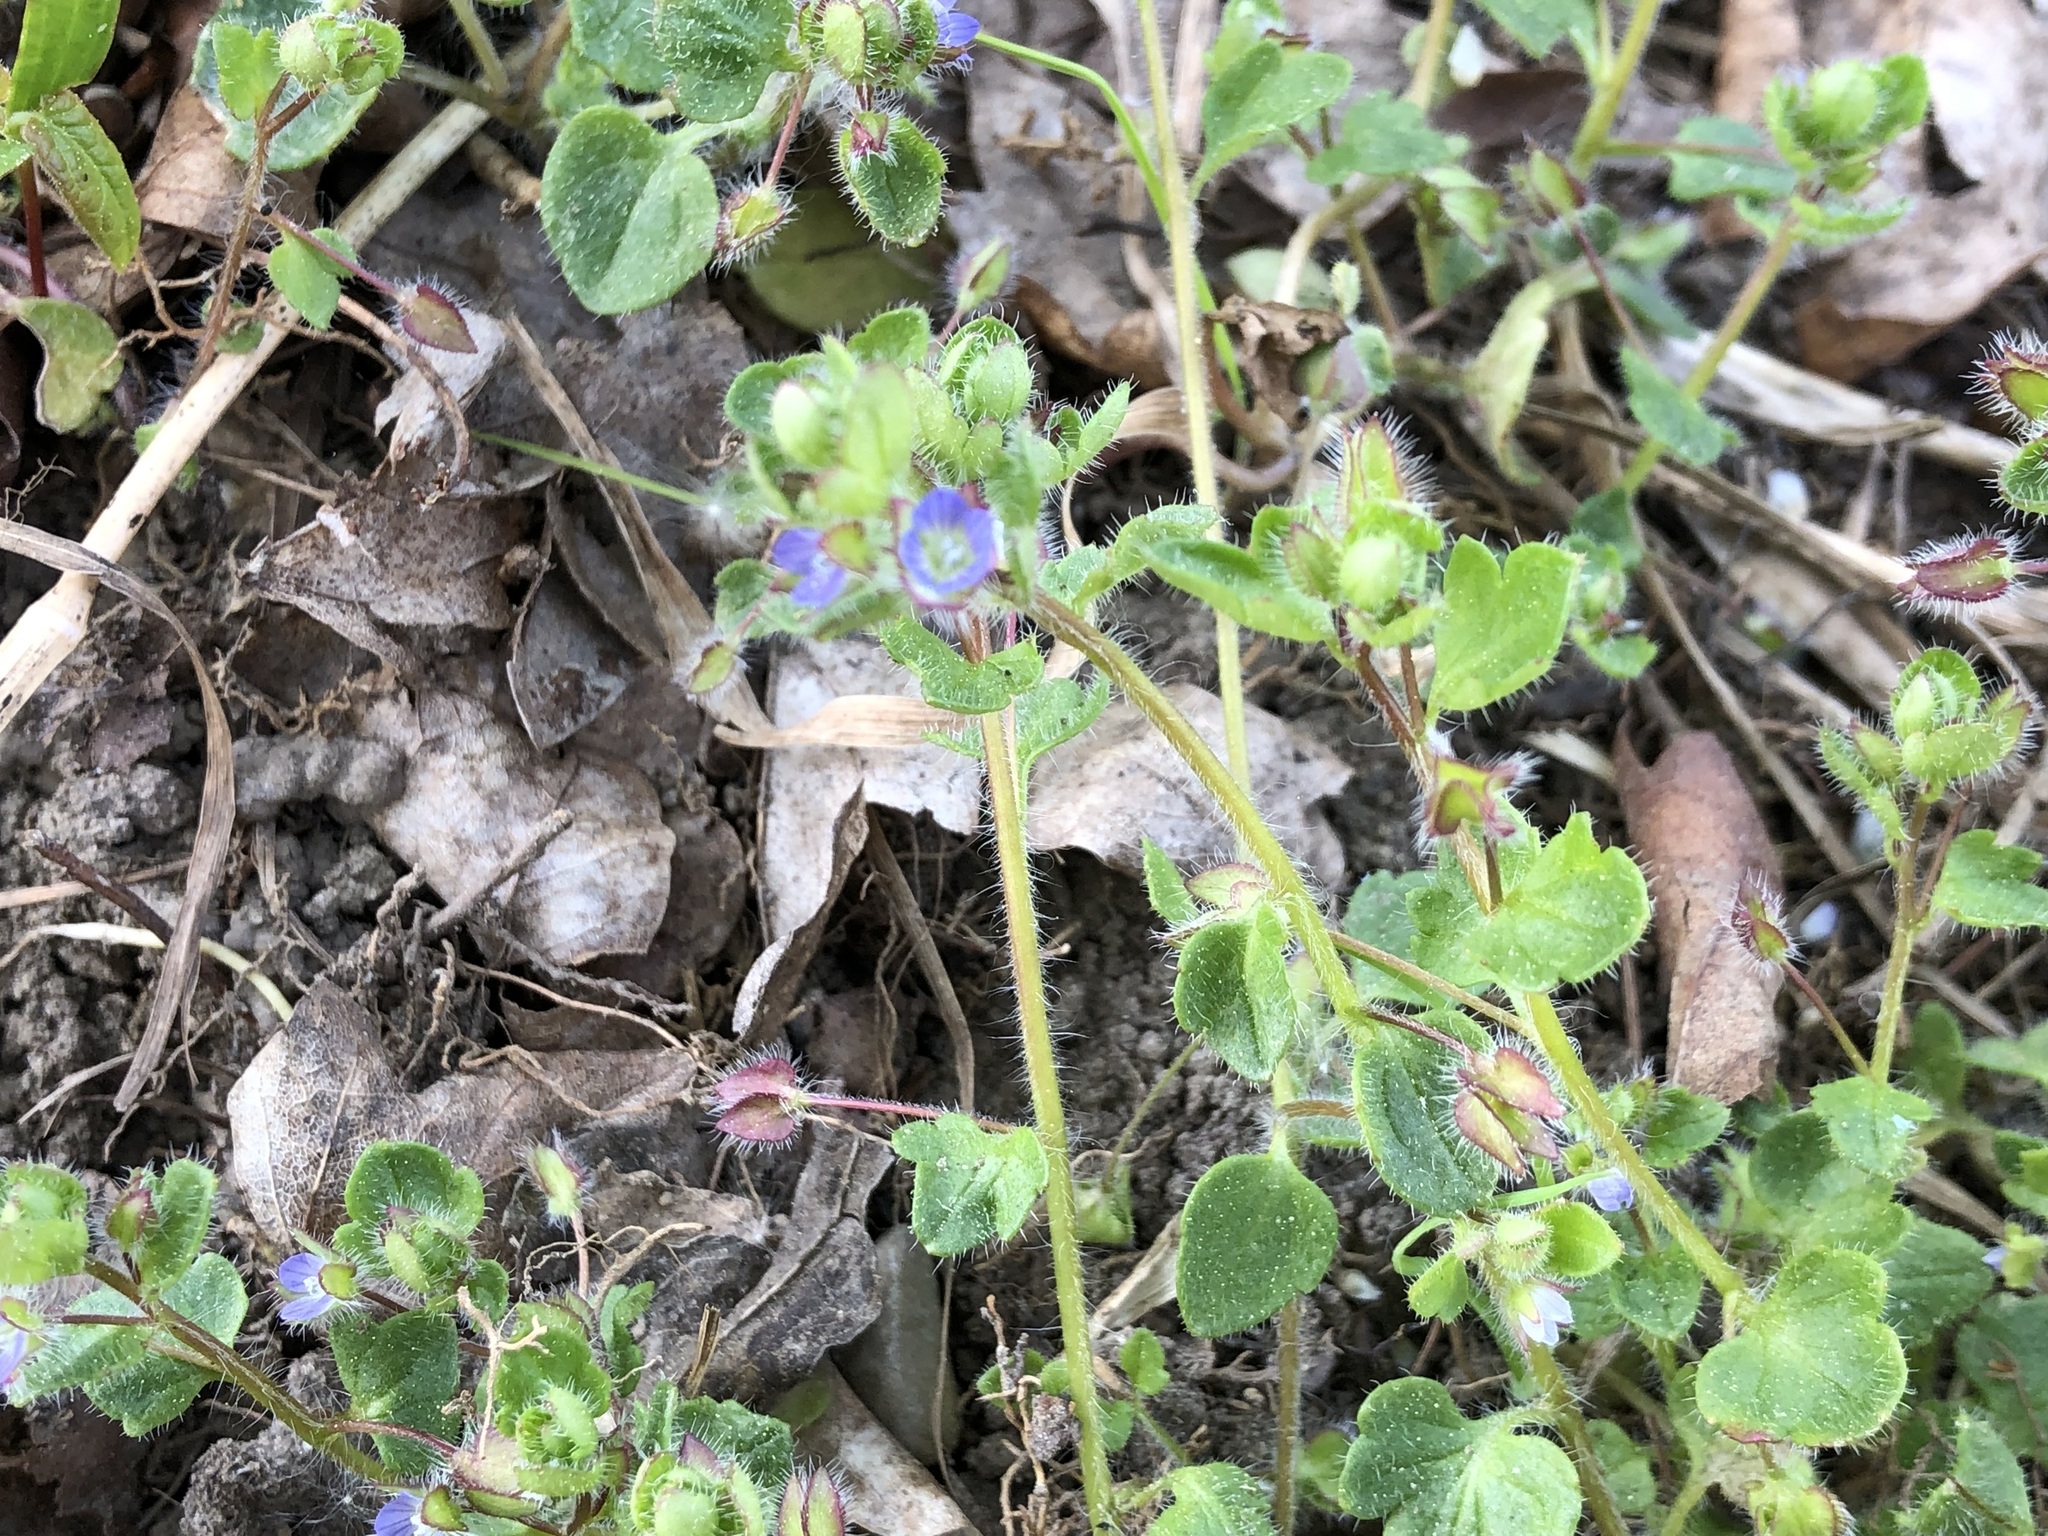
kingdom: Plantae
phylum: Tracheophyta
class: Magnoliopsida
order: Lamiales
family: Plantaginaceae
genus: Veronica
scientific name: Veronica hederifolia
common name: Ivy-leaved speedwell
